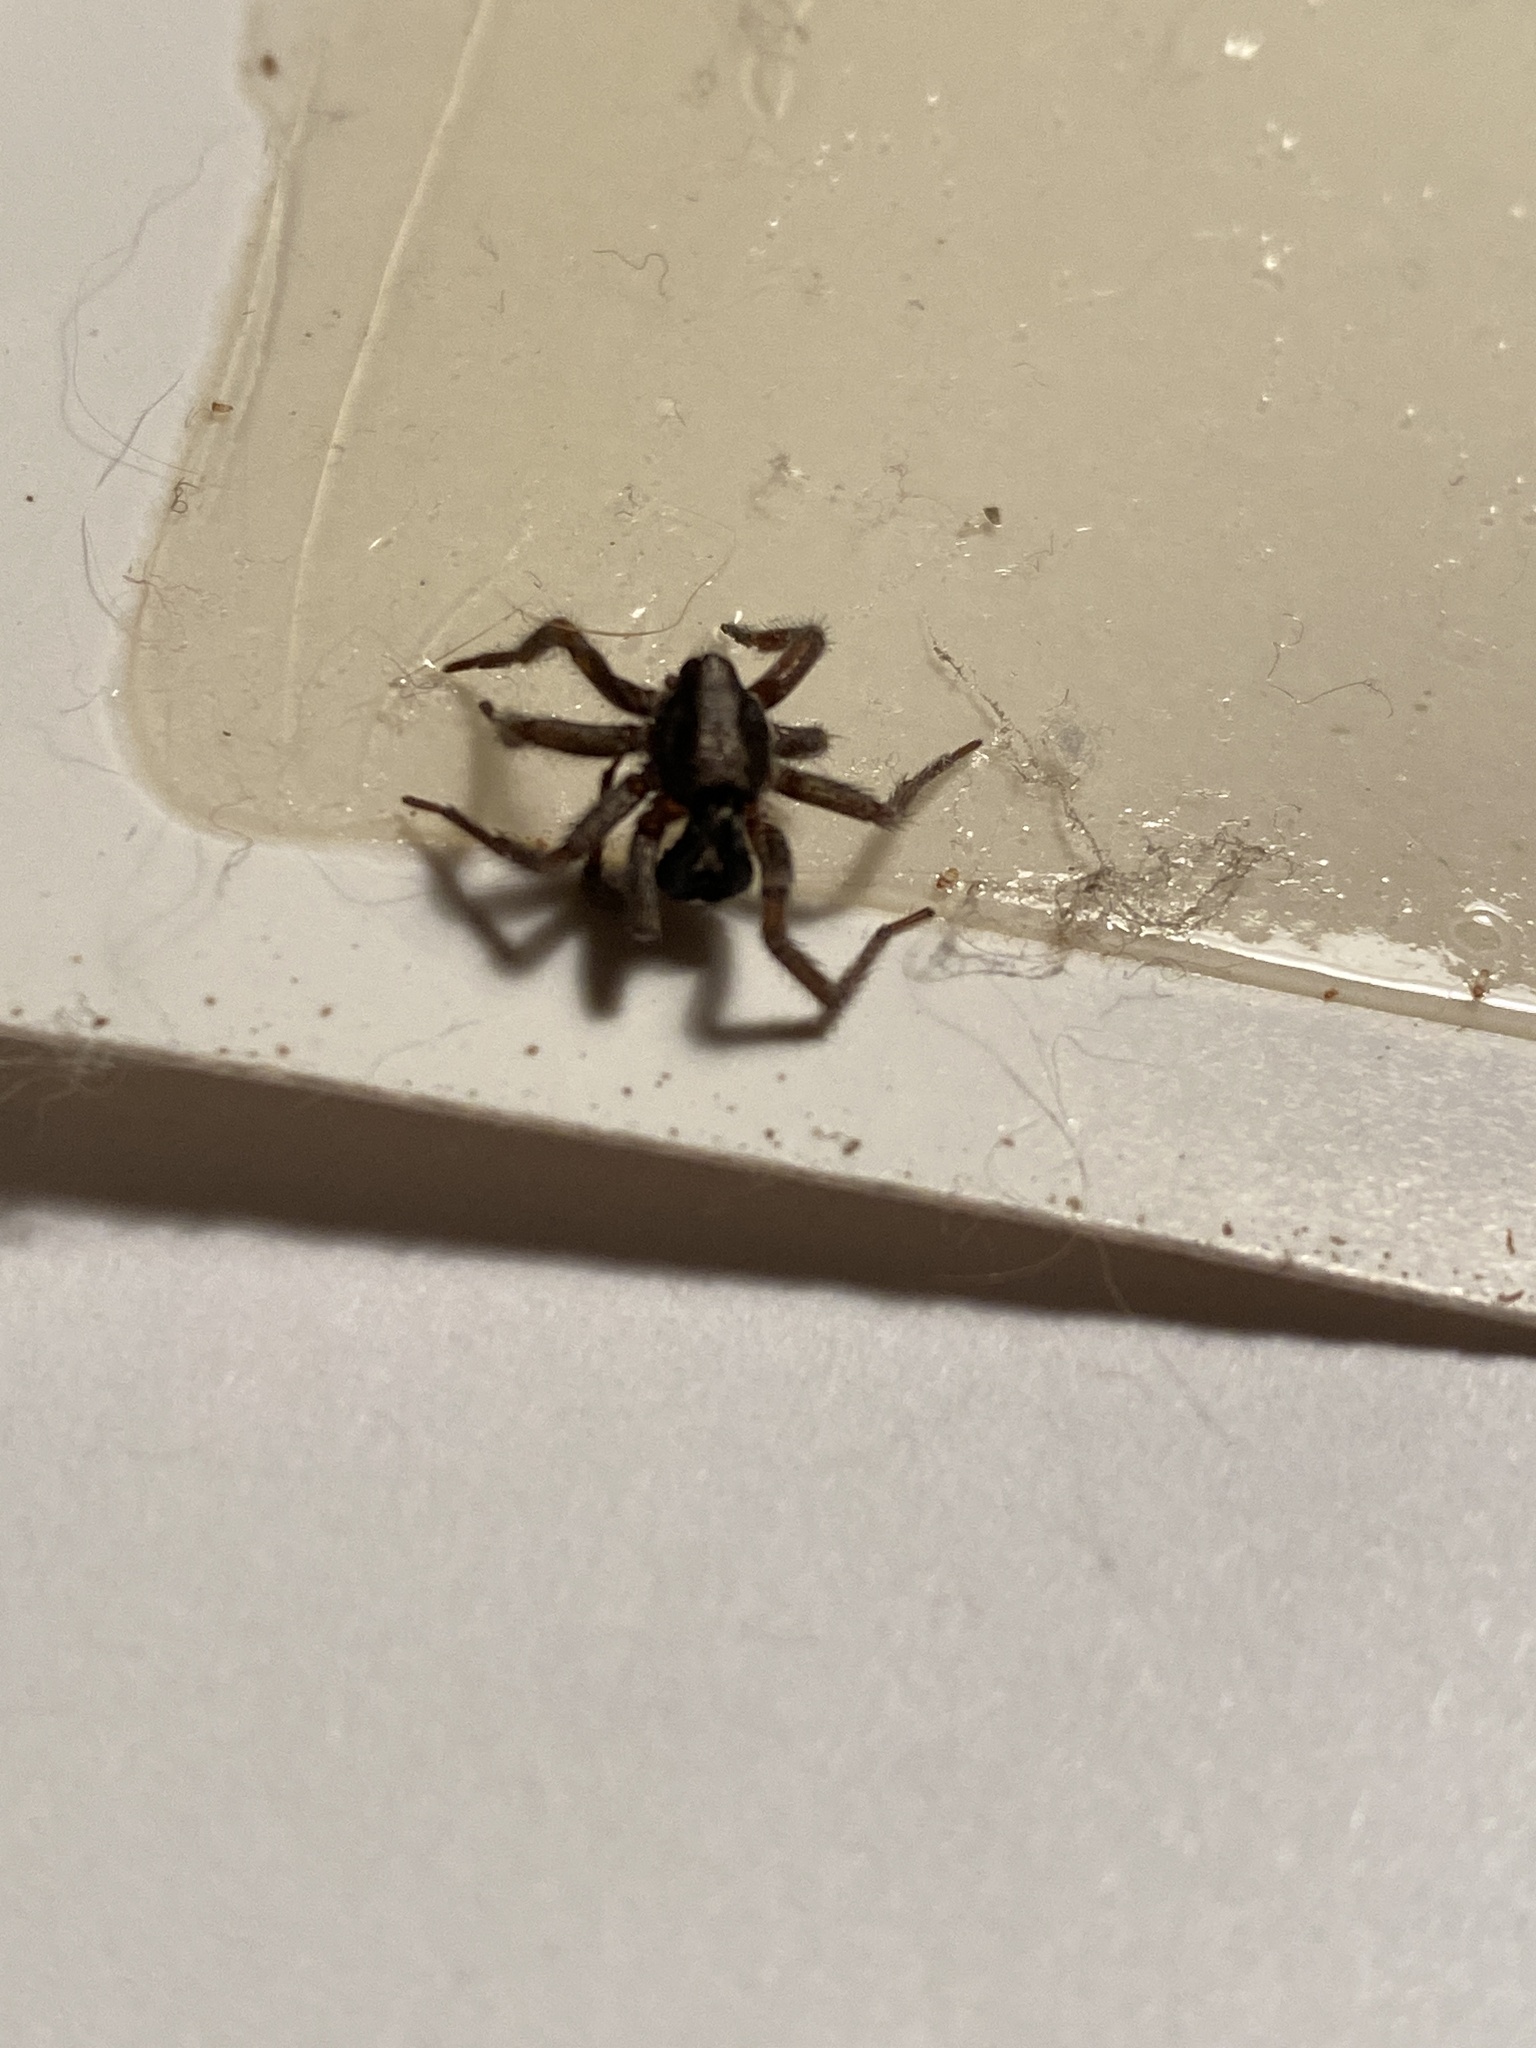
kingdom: Animalia
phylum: Arthropoda
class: Arachnida
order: Araneae
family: Gnaphosidae
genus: Herpyllus
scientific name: Herpyllus ecclesiasticus
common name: Eastern parson spider
